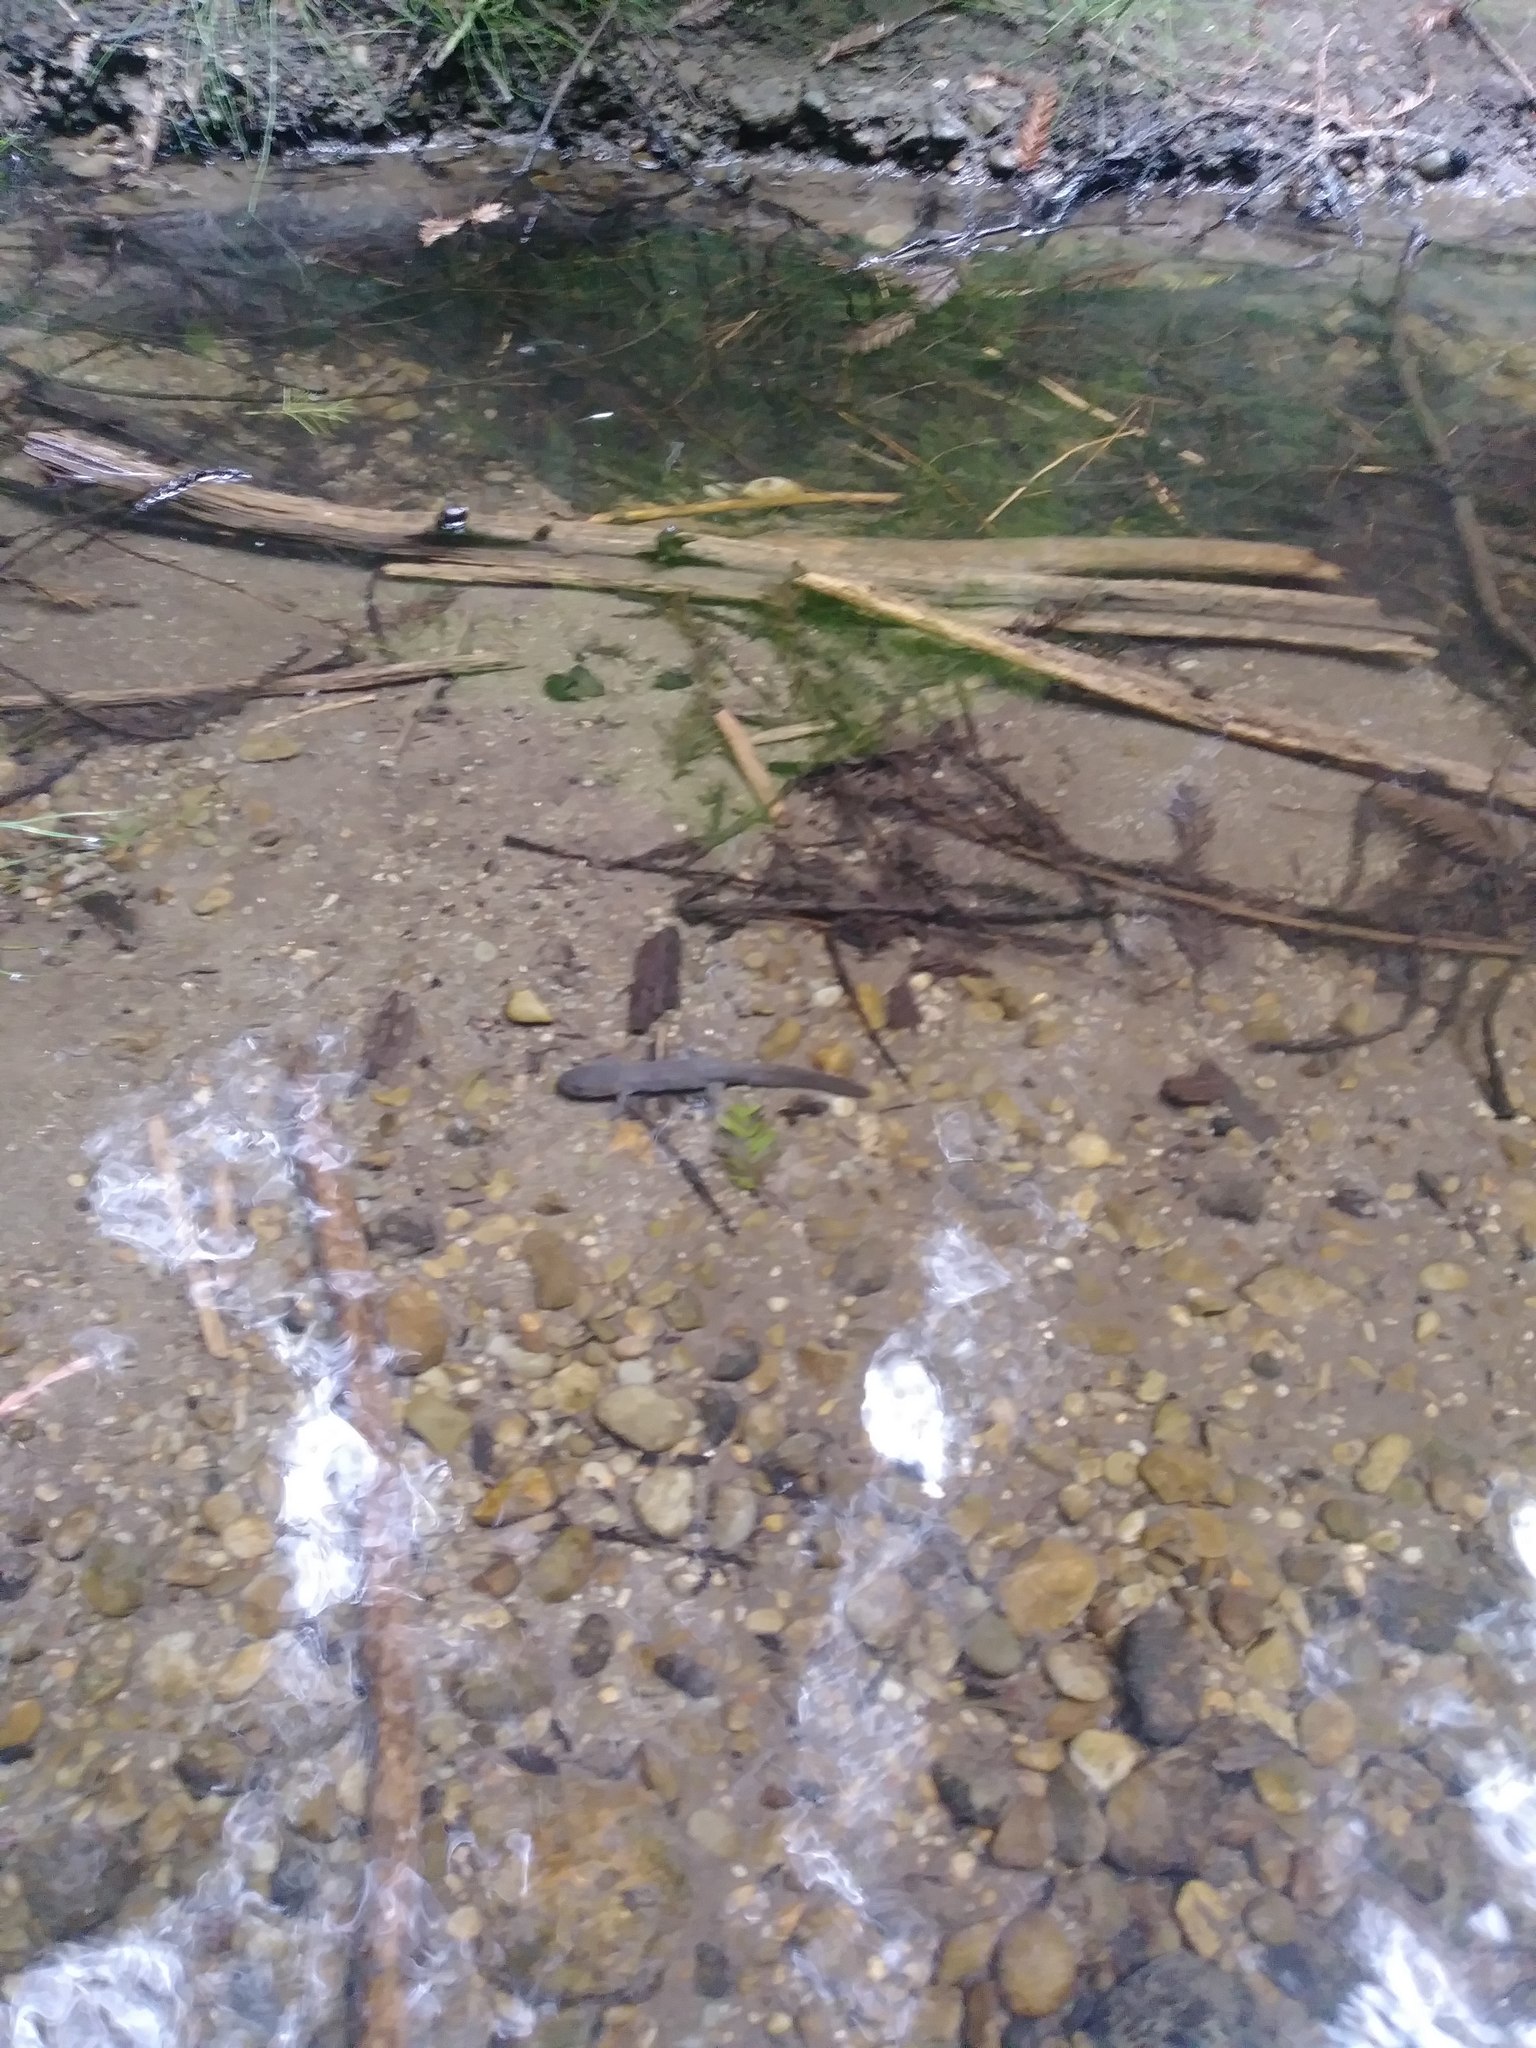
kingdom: Animalia
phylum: Chordata
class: Amphibia
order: Caudata
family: Ambystomatidae
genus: Dicamptodon
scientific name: Dicamptodon ensatus
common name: California giant salamander
